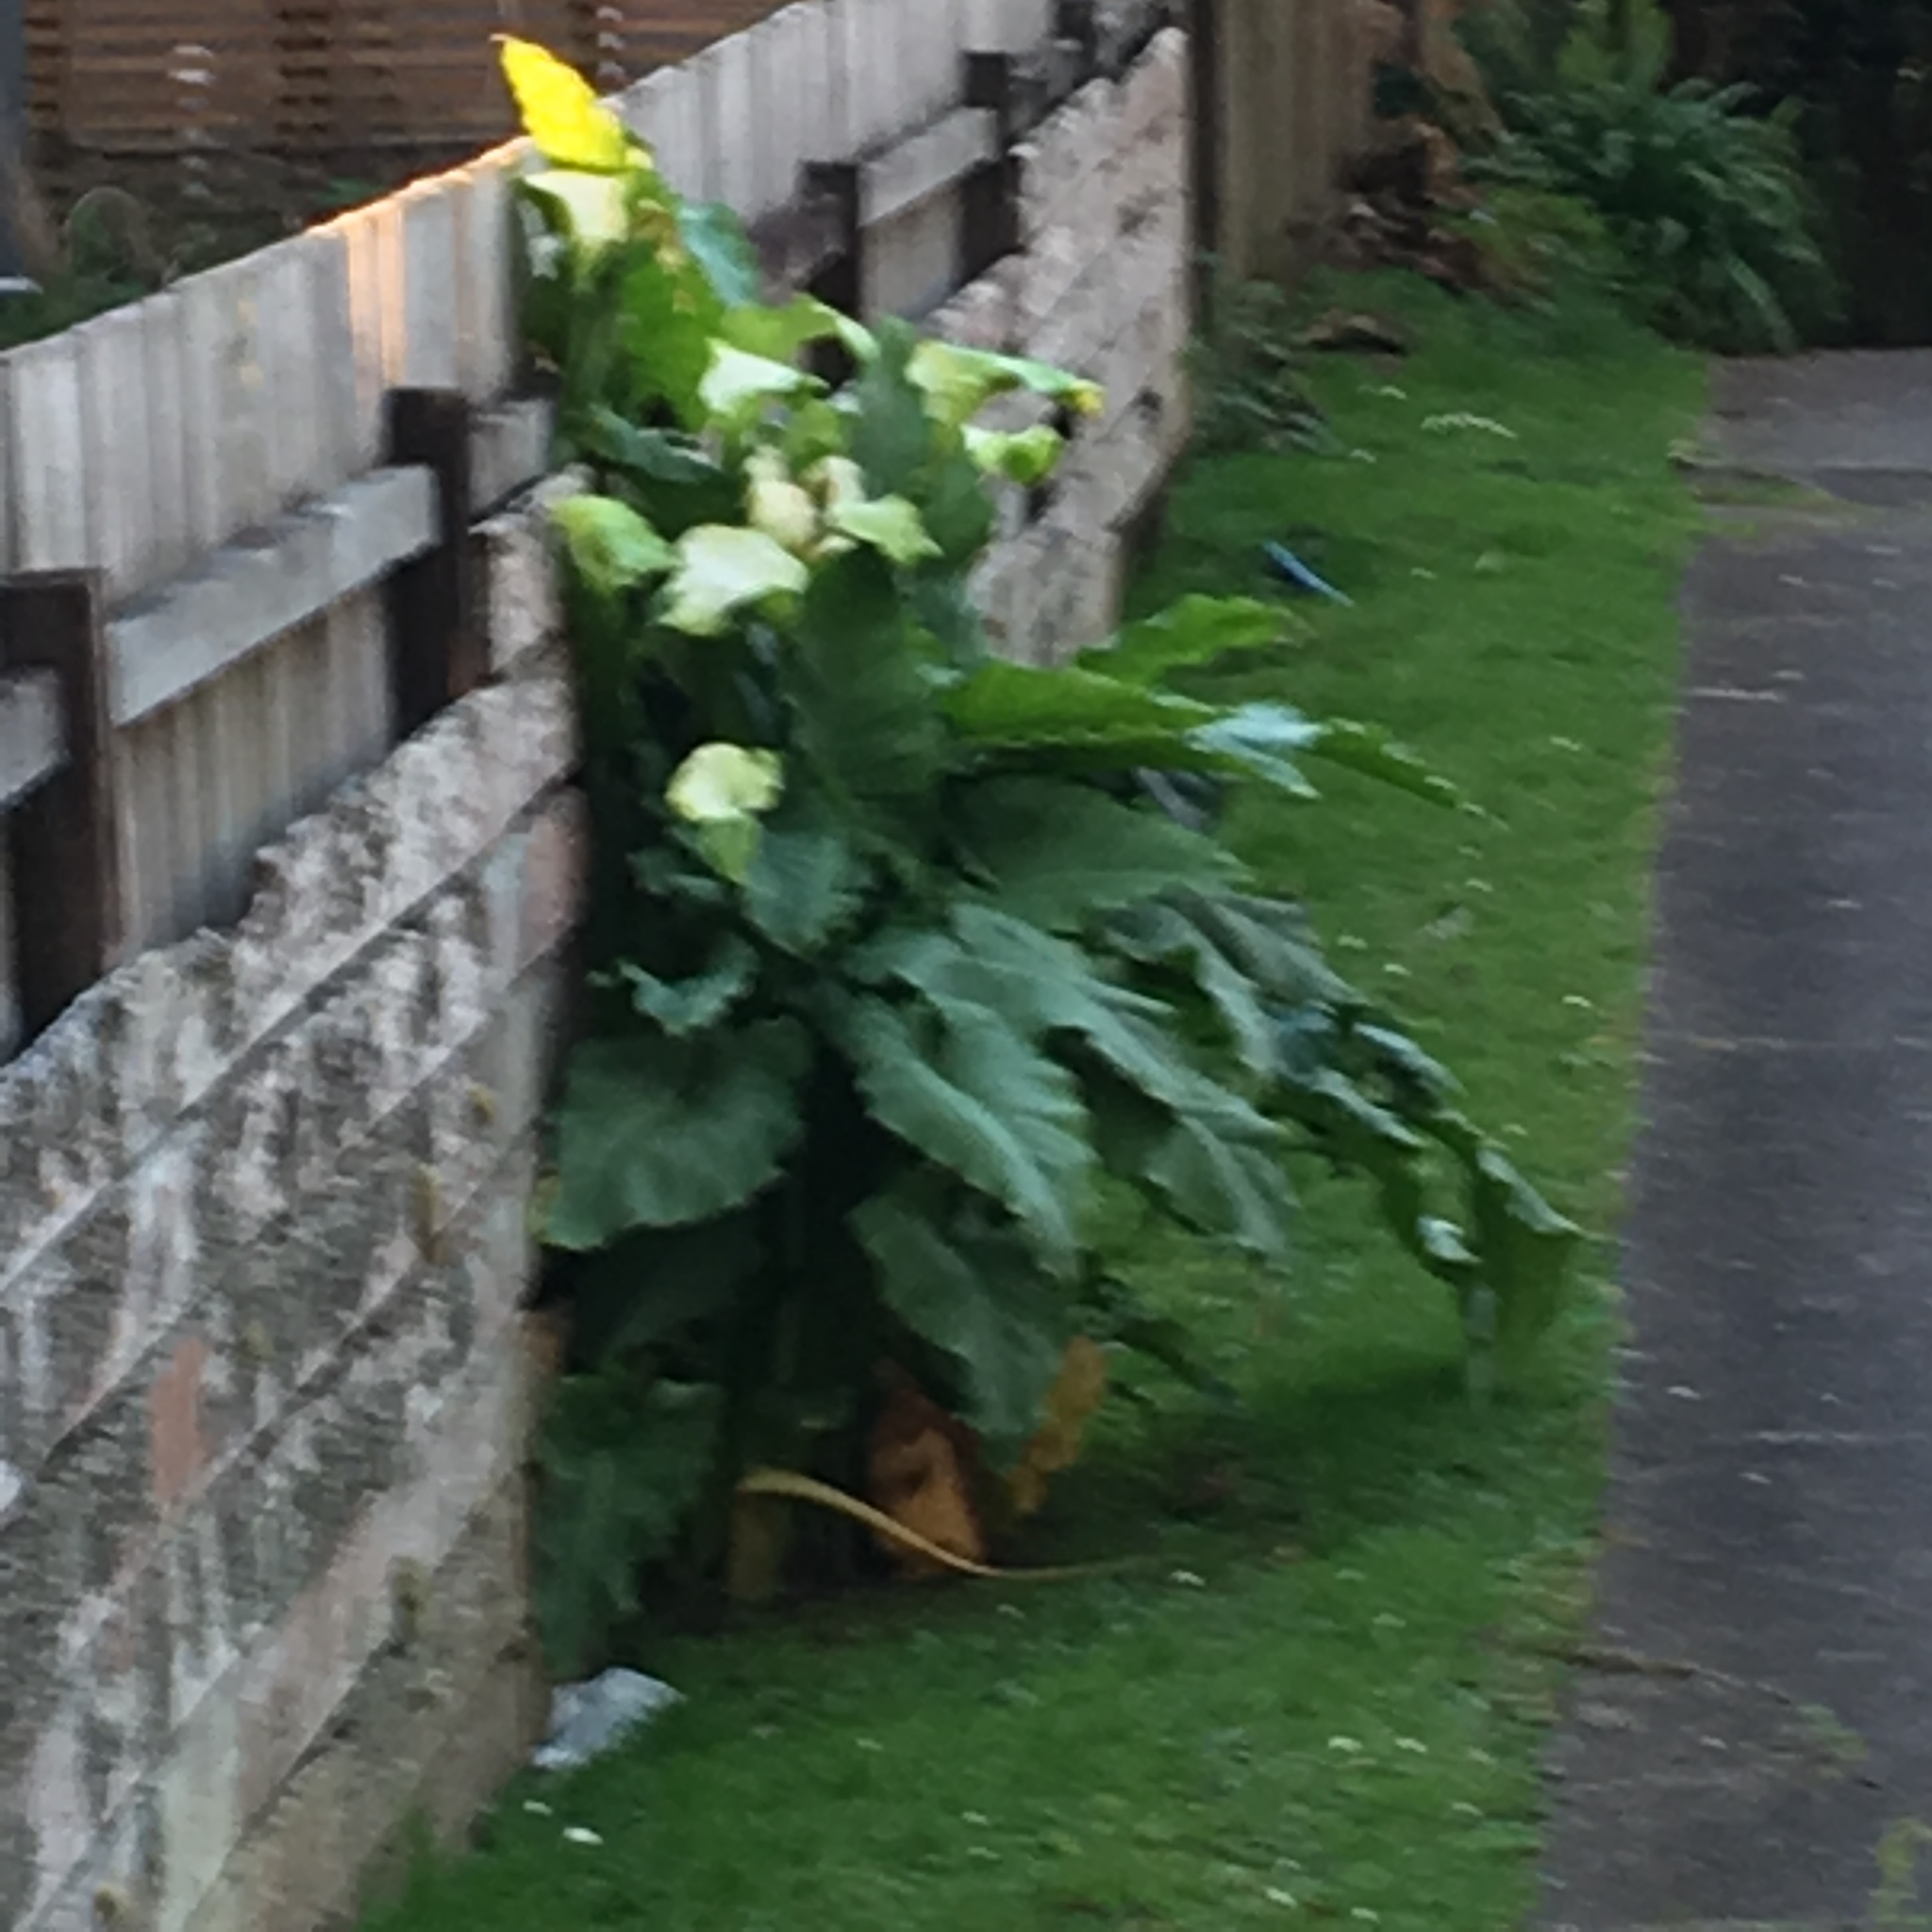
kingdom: Plantae
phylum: Tracheophyta
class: Liliopsida
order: Alismatales
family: Araceae
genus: Zantedeschia
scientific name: Zantedeschia aethiopica
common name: Altar-lily
